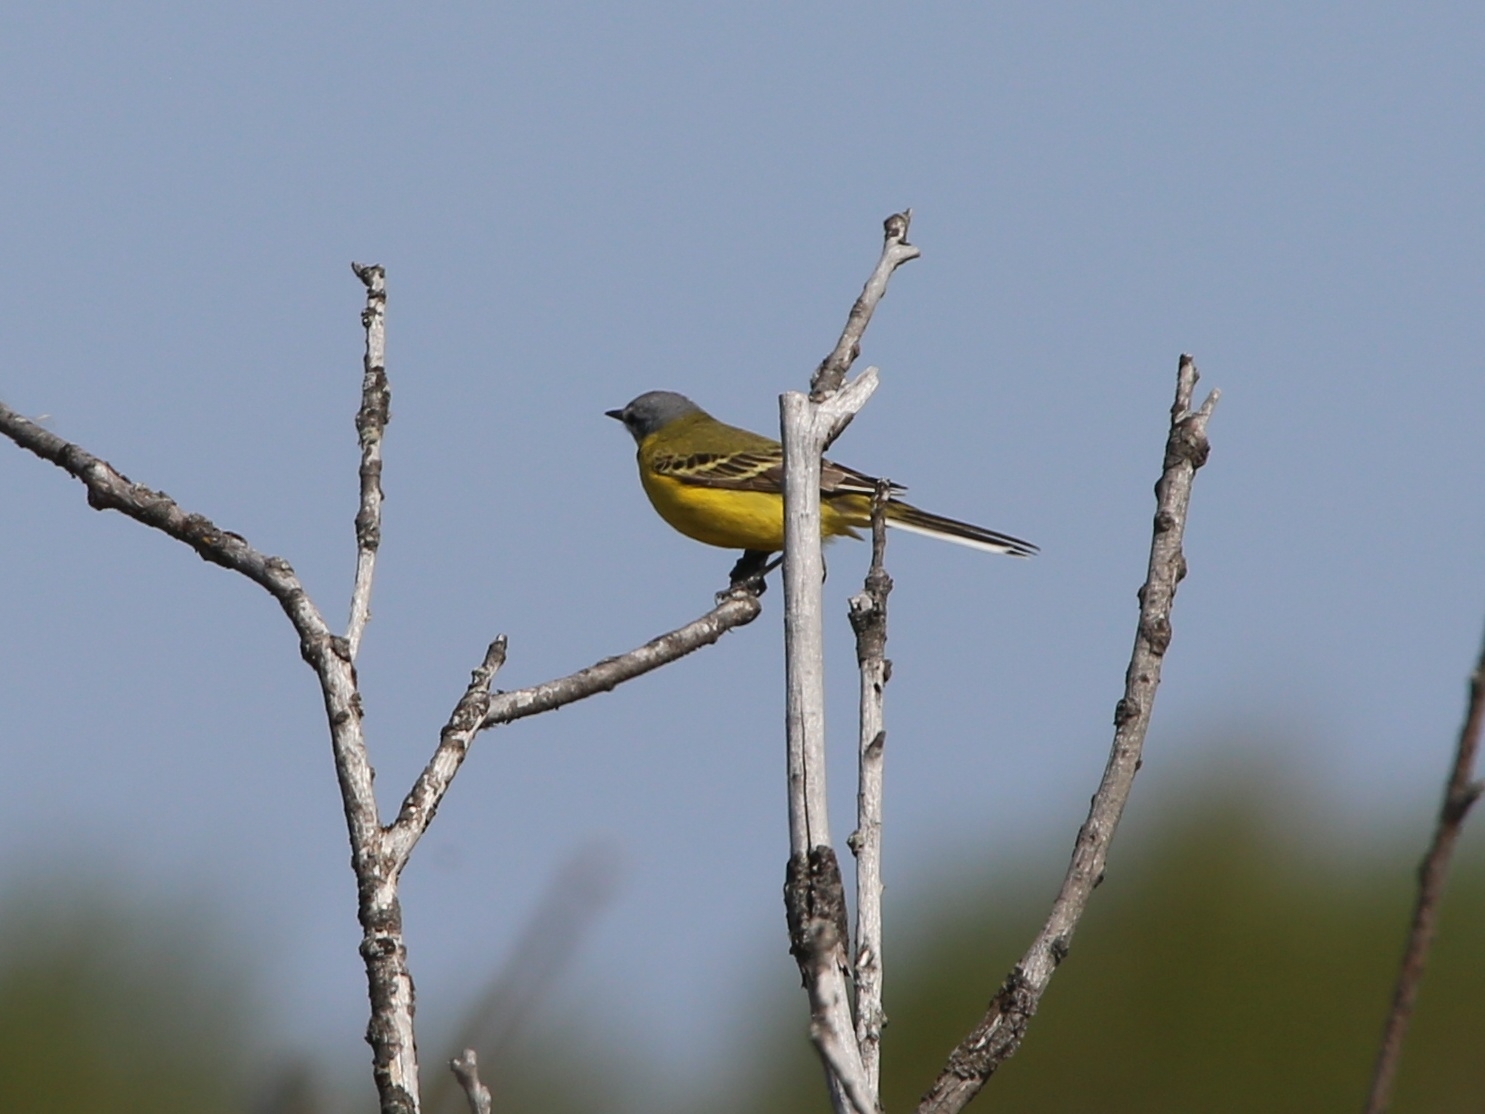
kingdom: Animalia
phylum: Chordata
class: Aves
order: Passeriformes
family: Motacillidae
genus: Motacilla
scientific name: Motacilla flava
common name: Western yellow wagtail
